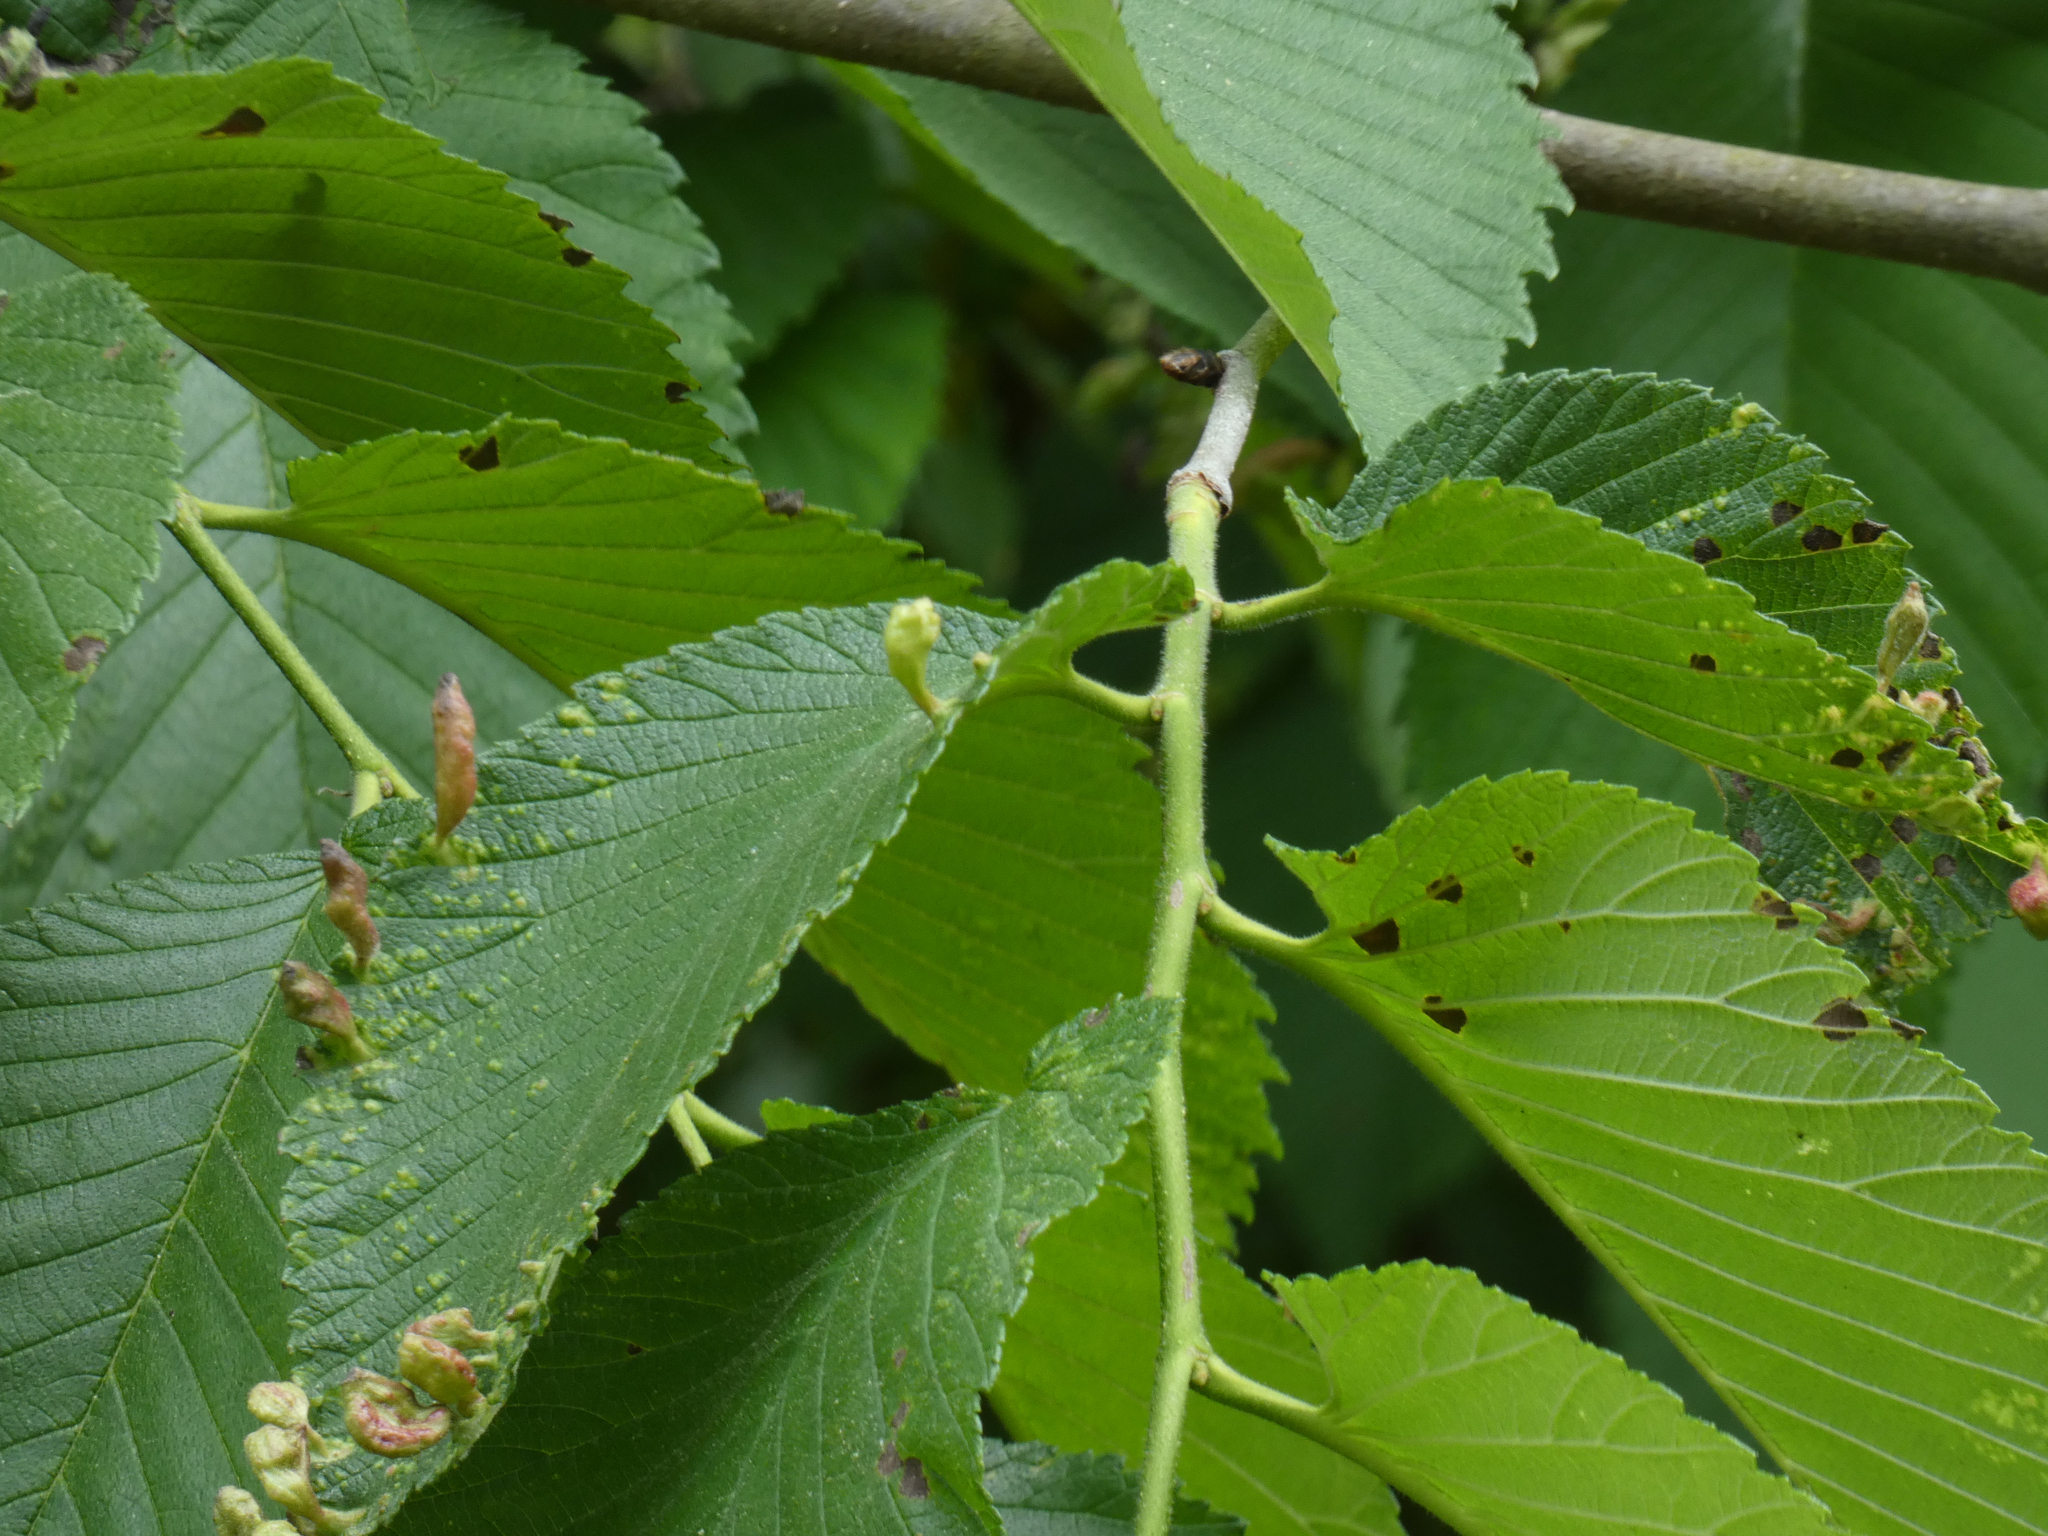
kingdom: Animalia
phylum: Arthropoda
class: Insecta
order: Hemiptera
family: Aphididae
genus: Tetraneura
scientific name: Tetraneura nigriabdominalis
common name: Aphid
